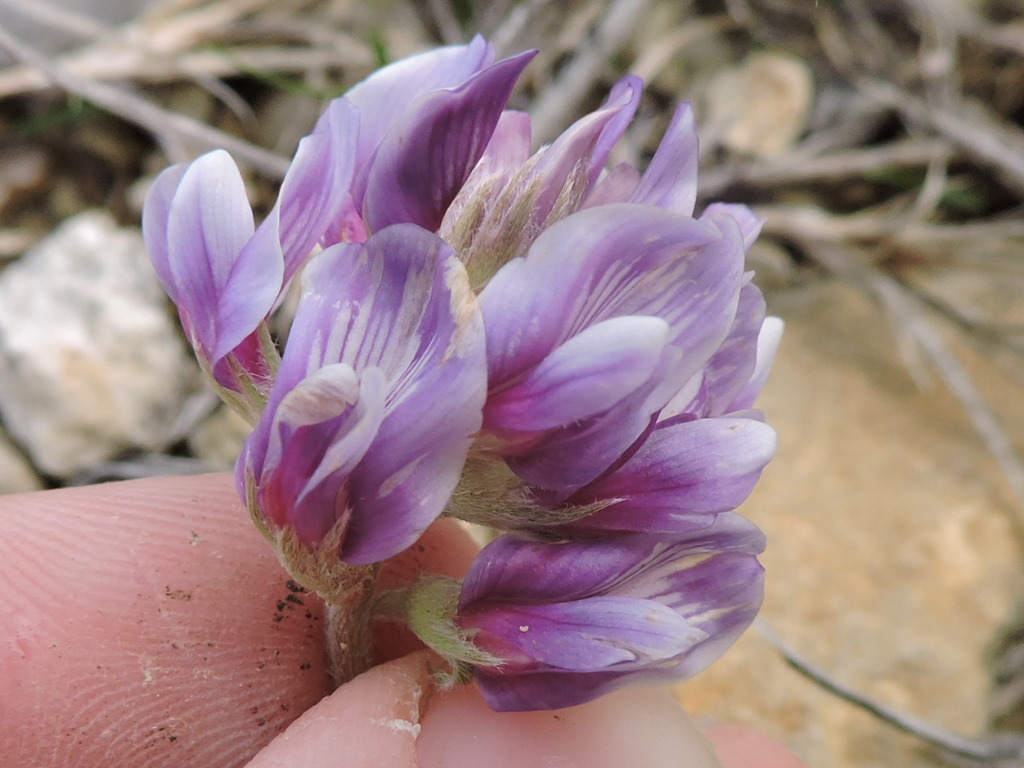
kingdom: Plantae
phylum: Tracheophyta
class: Magnoliopsida
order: Fabales
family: Fabaceae
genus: Astragalus
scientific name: Astragalus lotiflorus
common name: Lotus milk-vetch
